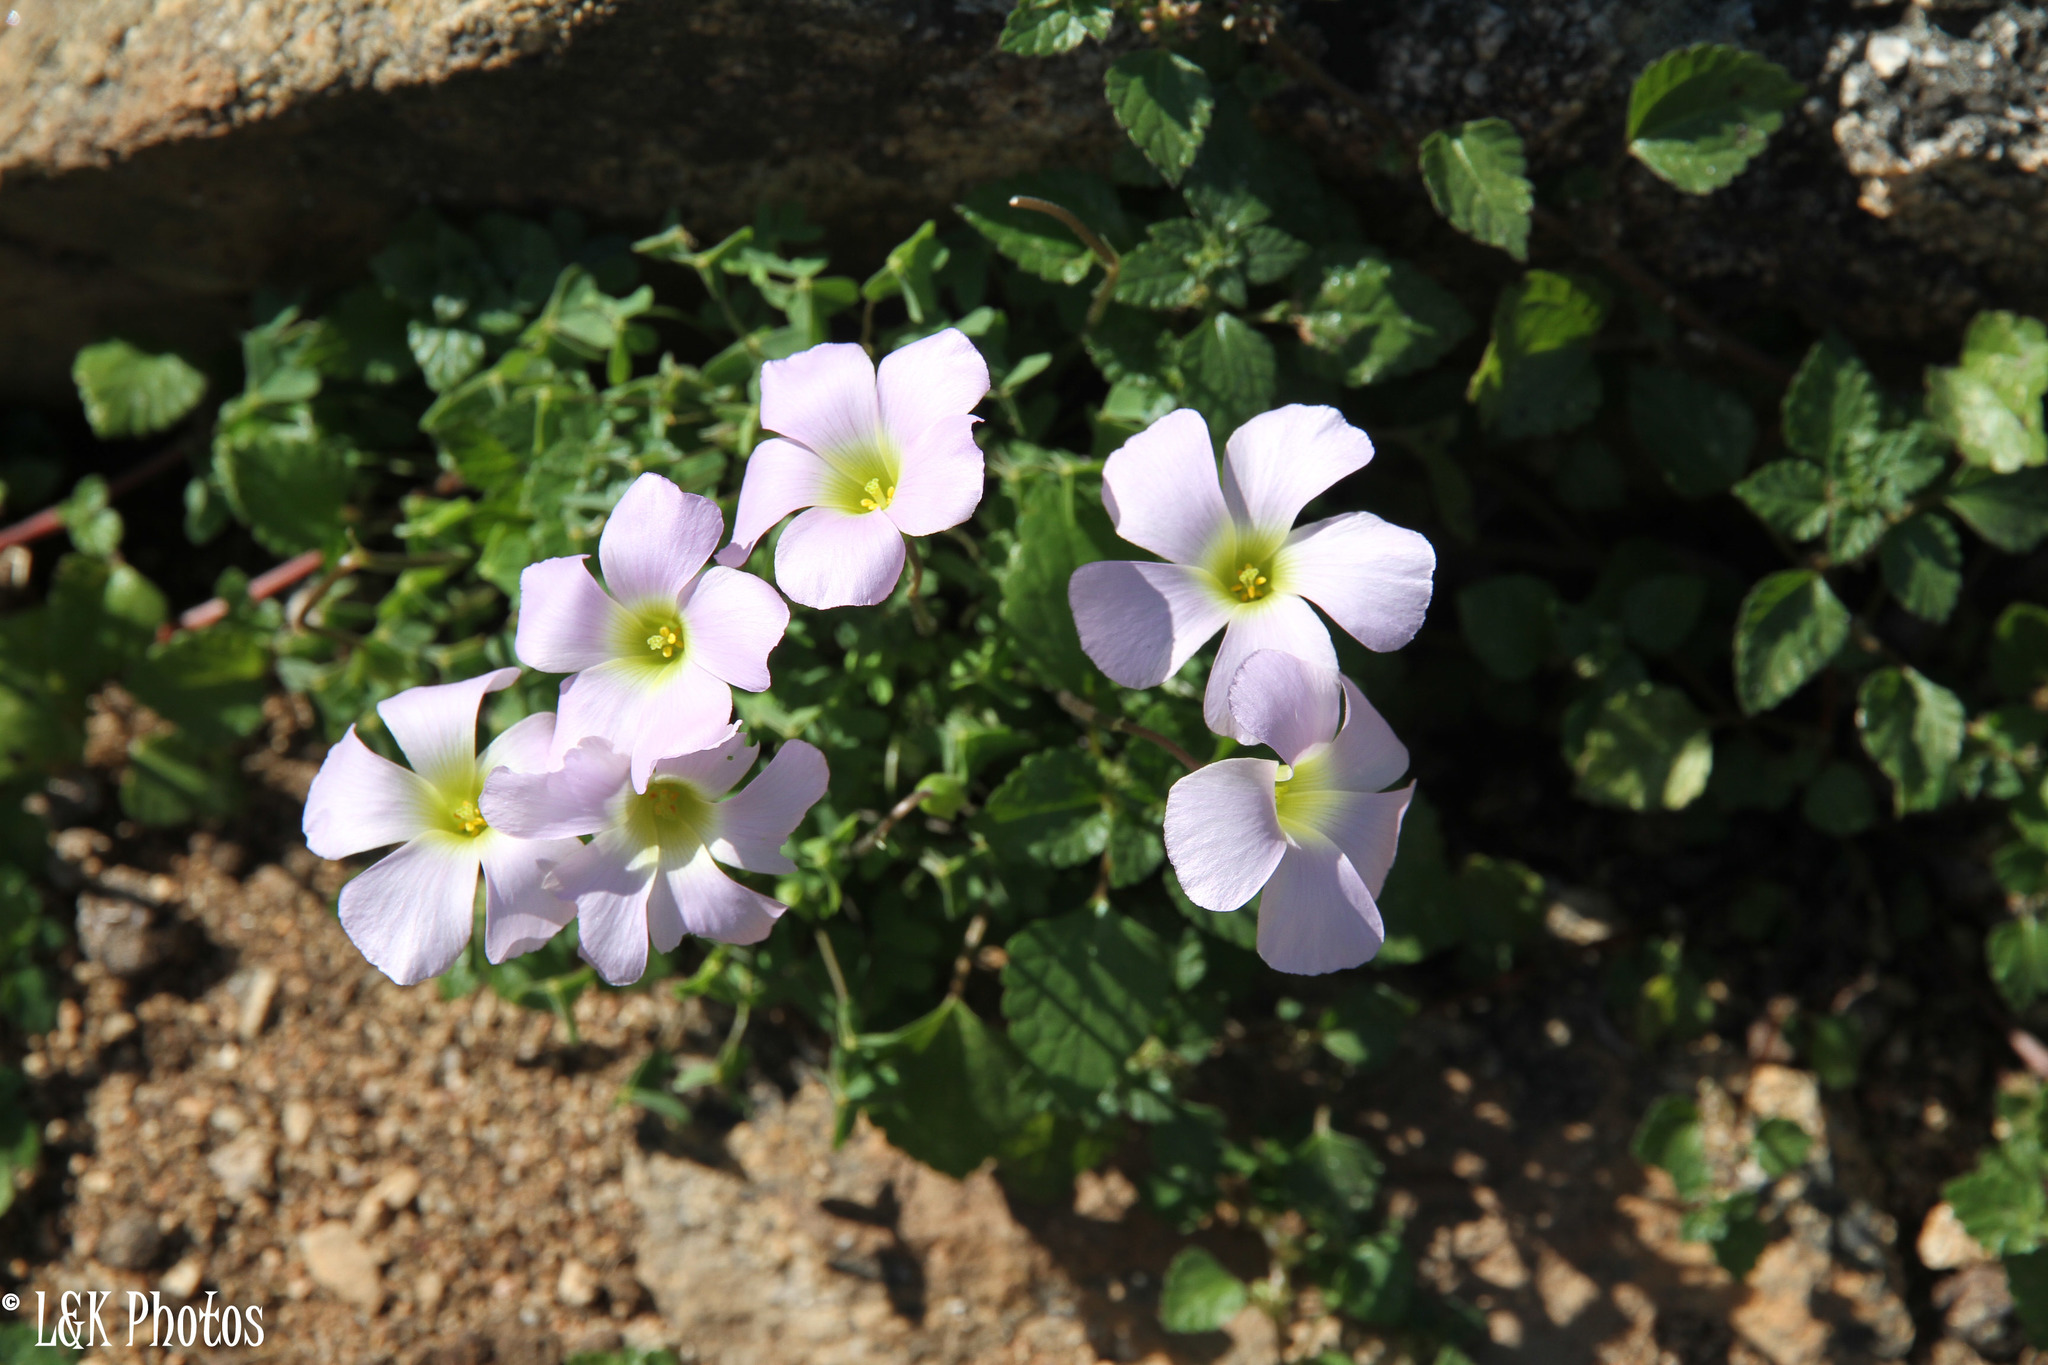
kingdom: Plantae
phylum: Tracheophyta
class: Magnoliopsida
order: Oxalidales
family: Oxalidaceae
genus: Oxalis
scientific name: Oxalis comosa
